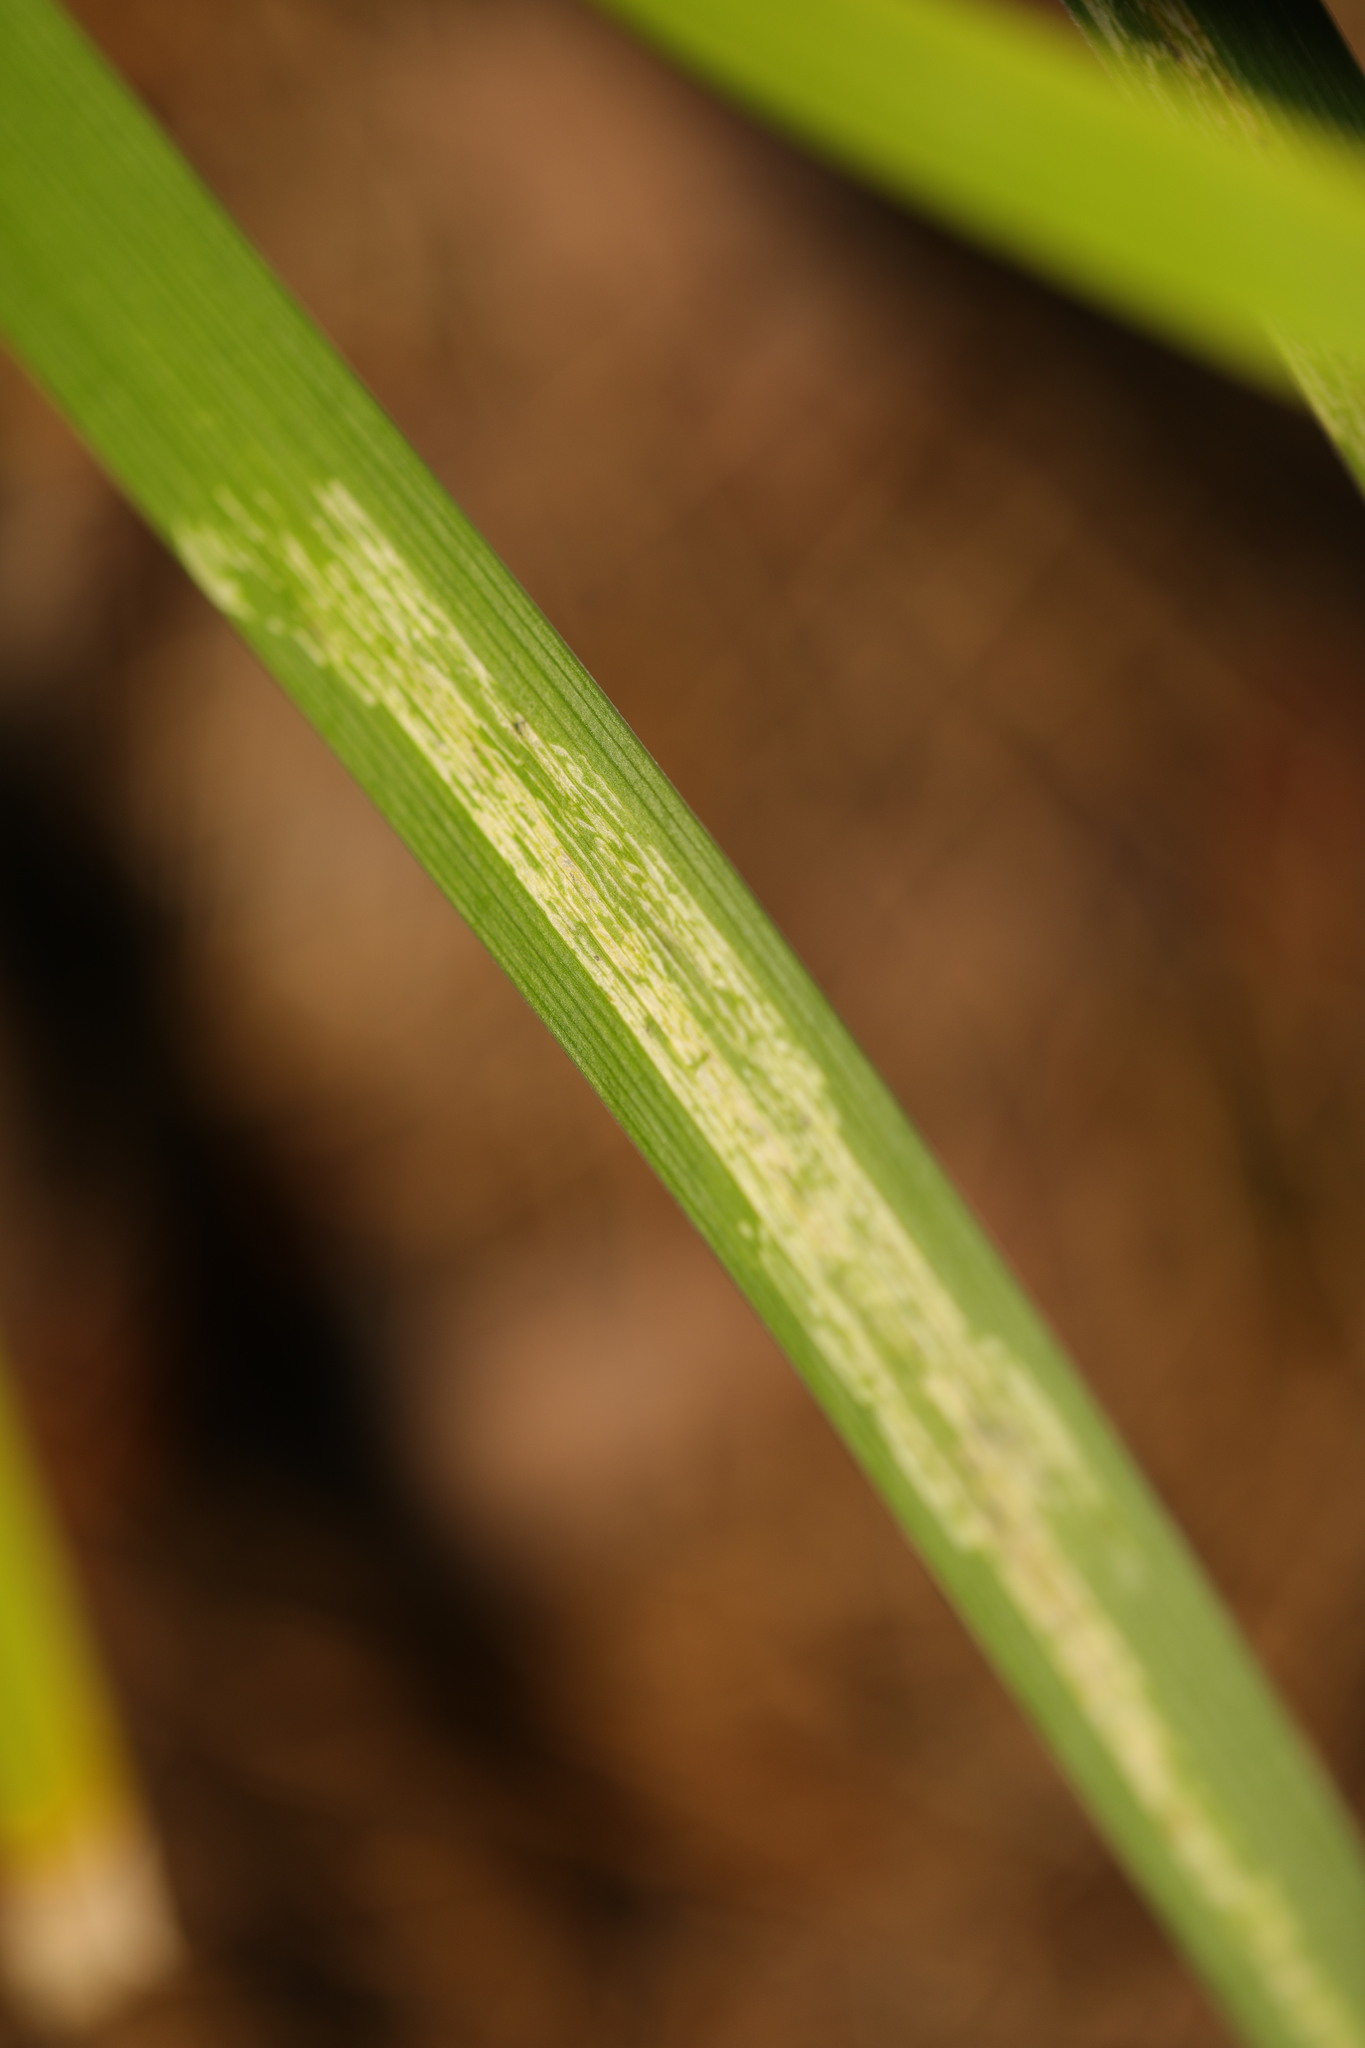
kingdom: Animalia
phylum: Arthropoda
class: Insecta
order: Diptera
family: Agromyzidae
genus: Phytobia
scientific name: Phytobia iridis
